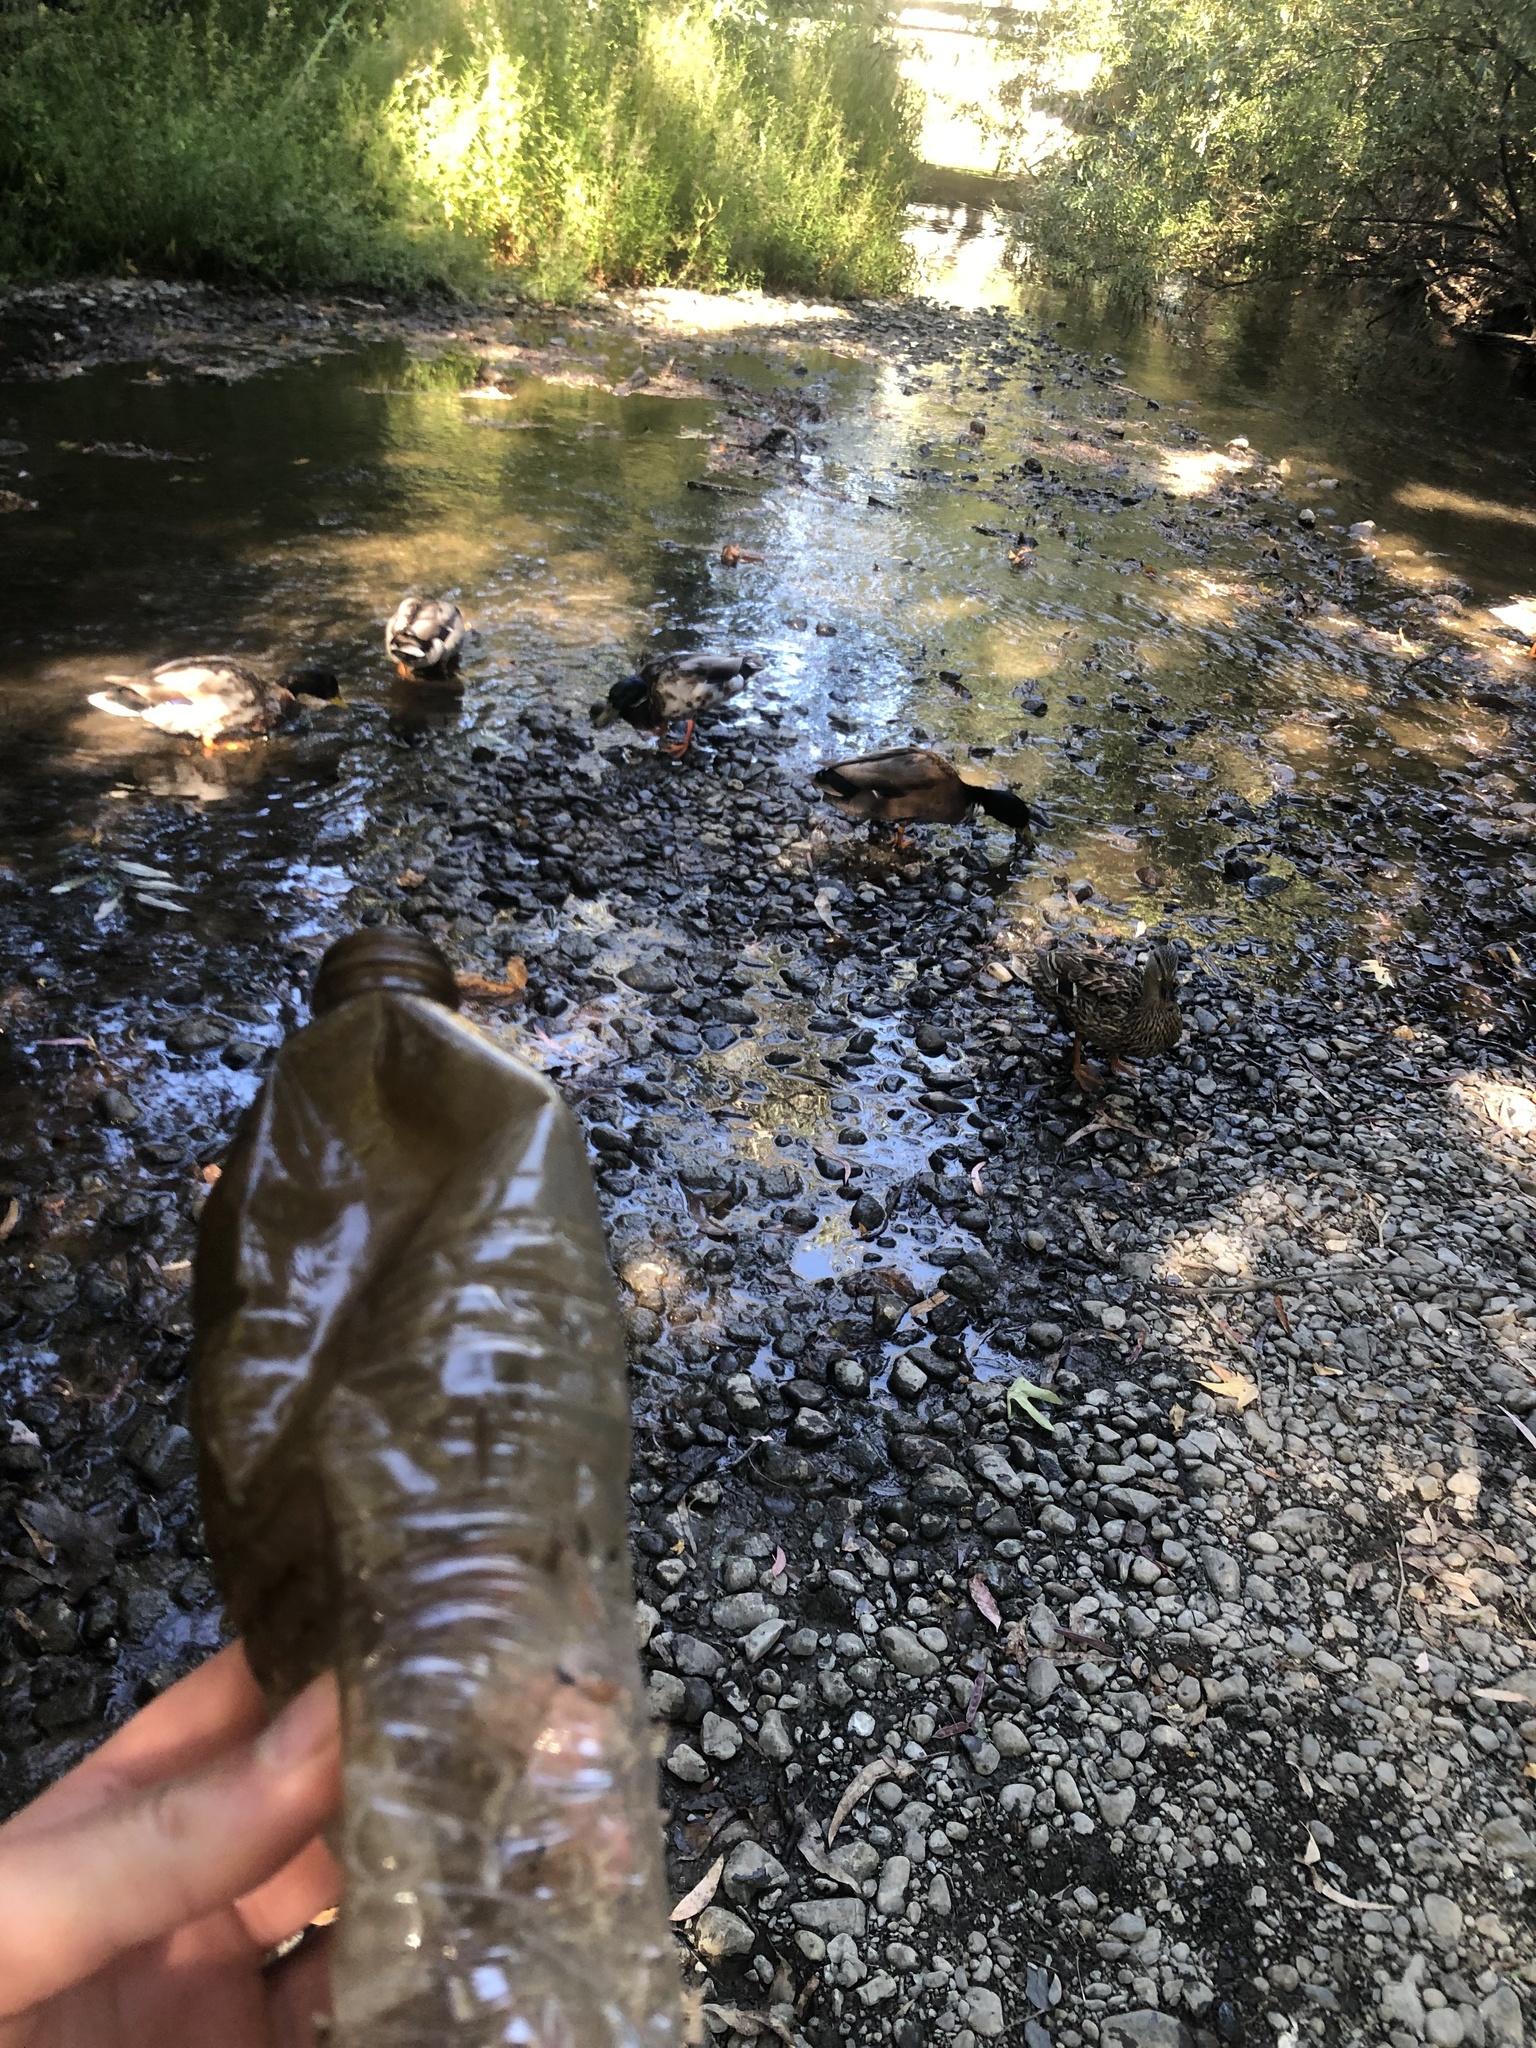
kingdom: Animalia
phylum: Chordata
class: Aves
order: Anseriformes
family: Anatidae
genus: Anas
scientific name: Anas platyrhynchos
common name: Mallard
